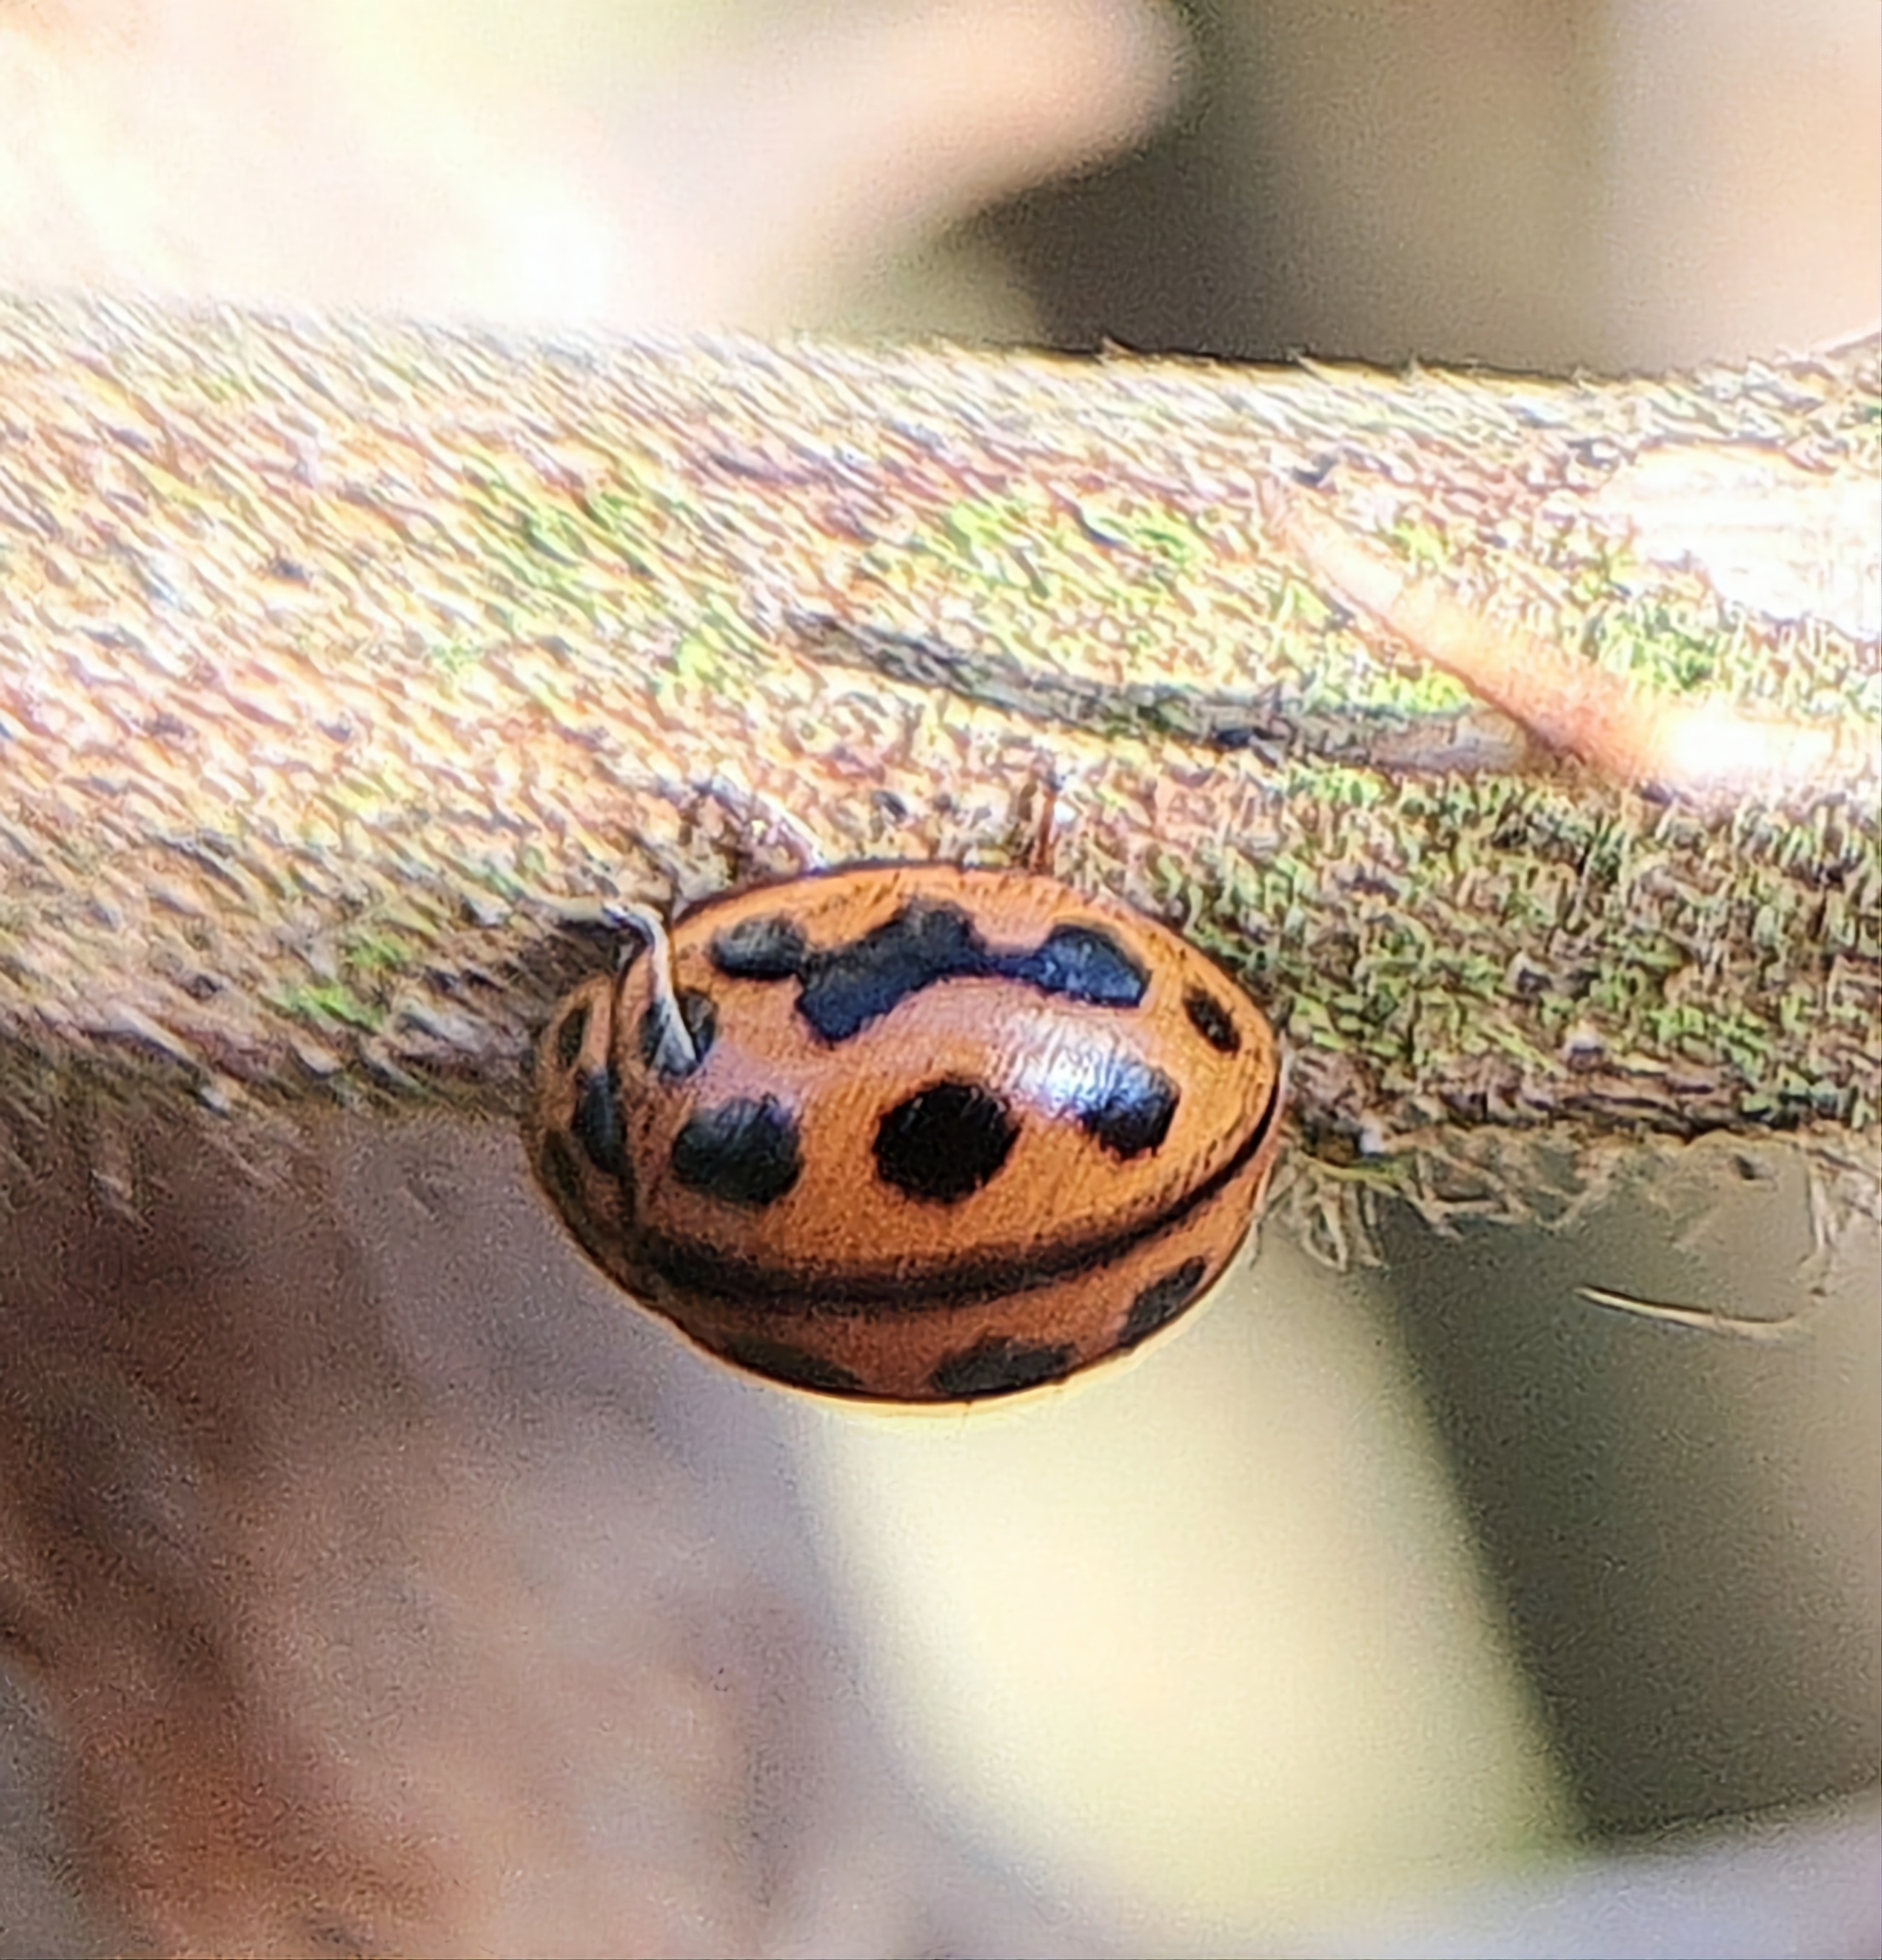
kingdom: Animalia
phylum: Arthropoda
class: Insecta
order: Coleoptera
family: Coccinellidae
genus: Tytthaspis
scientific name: Tytthaspis sedecimpunctata
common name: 16-spot ladybird
